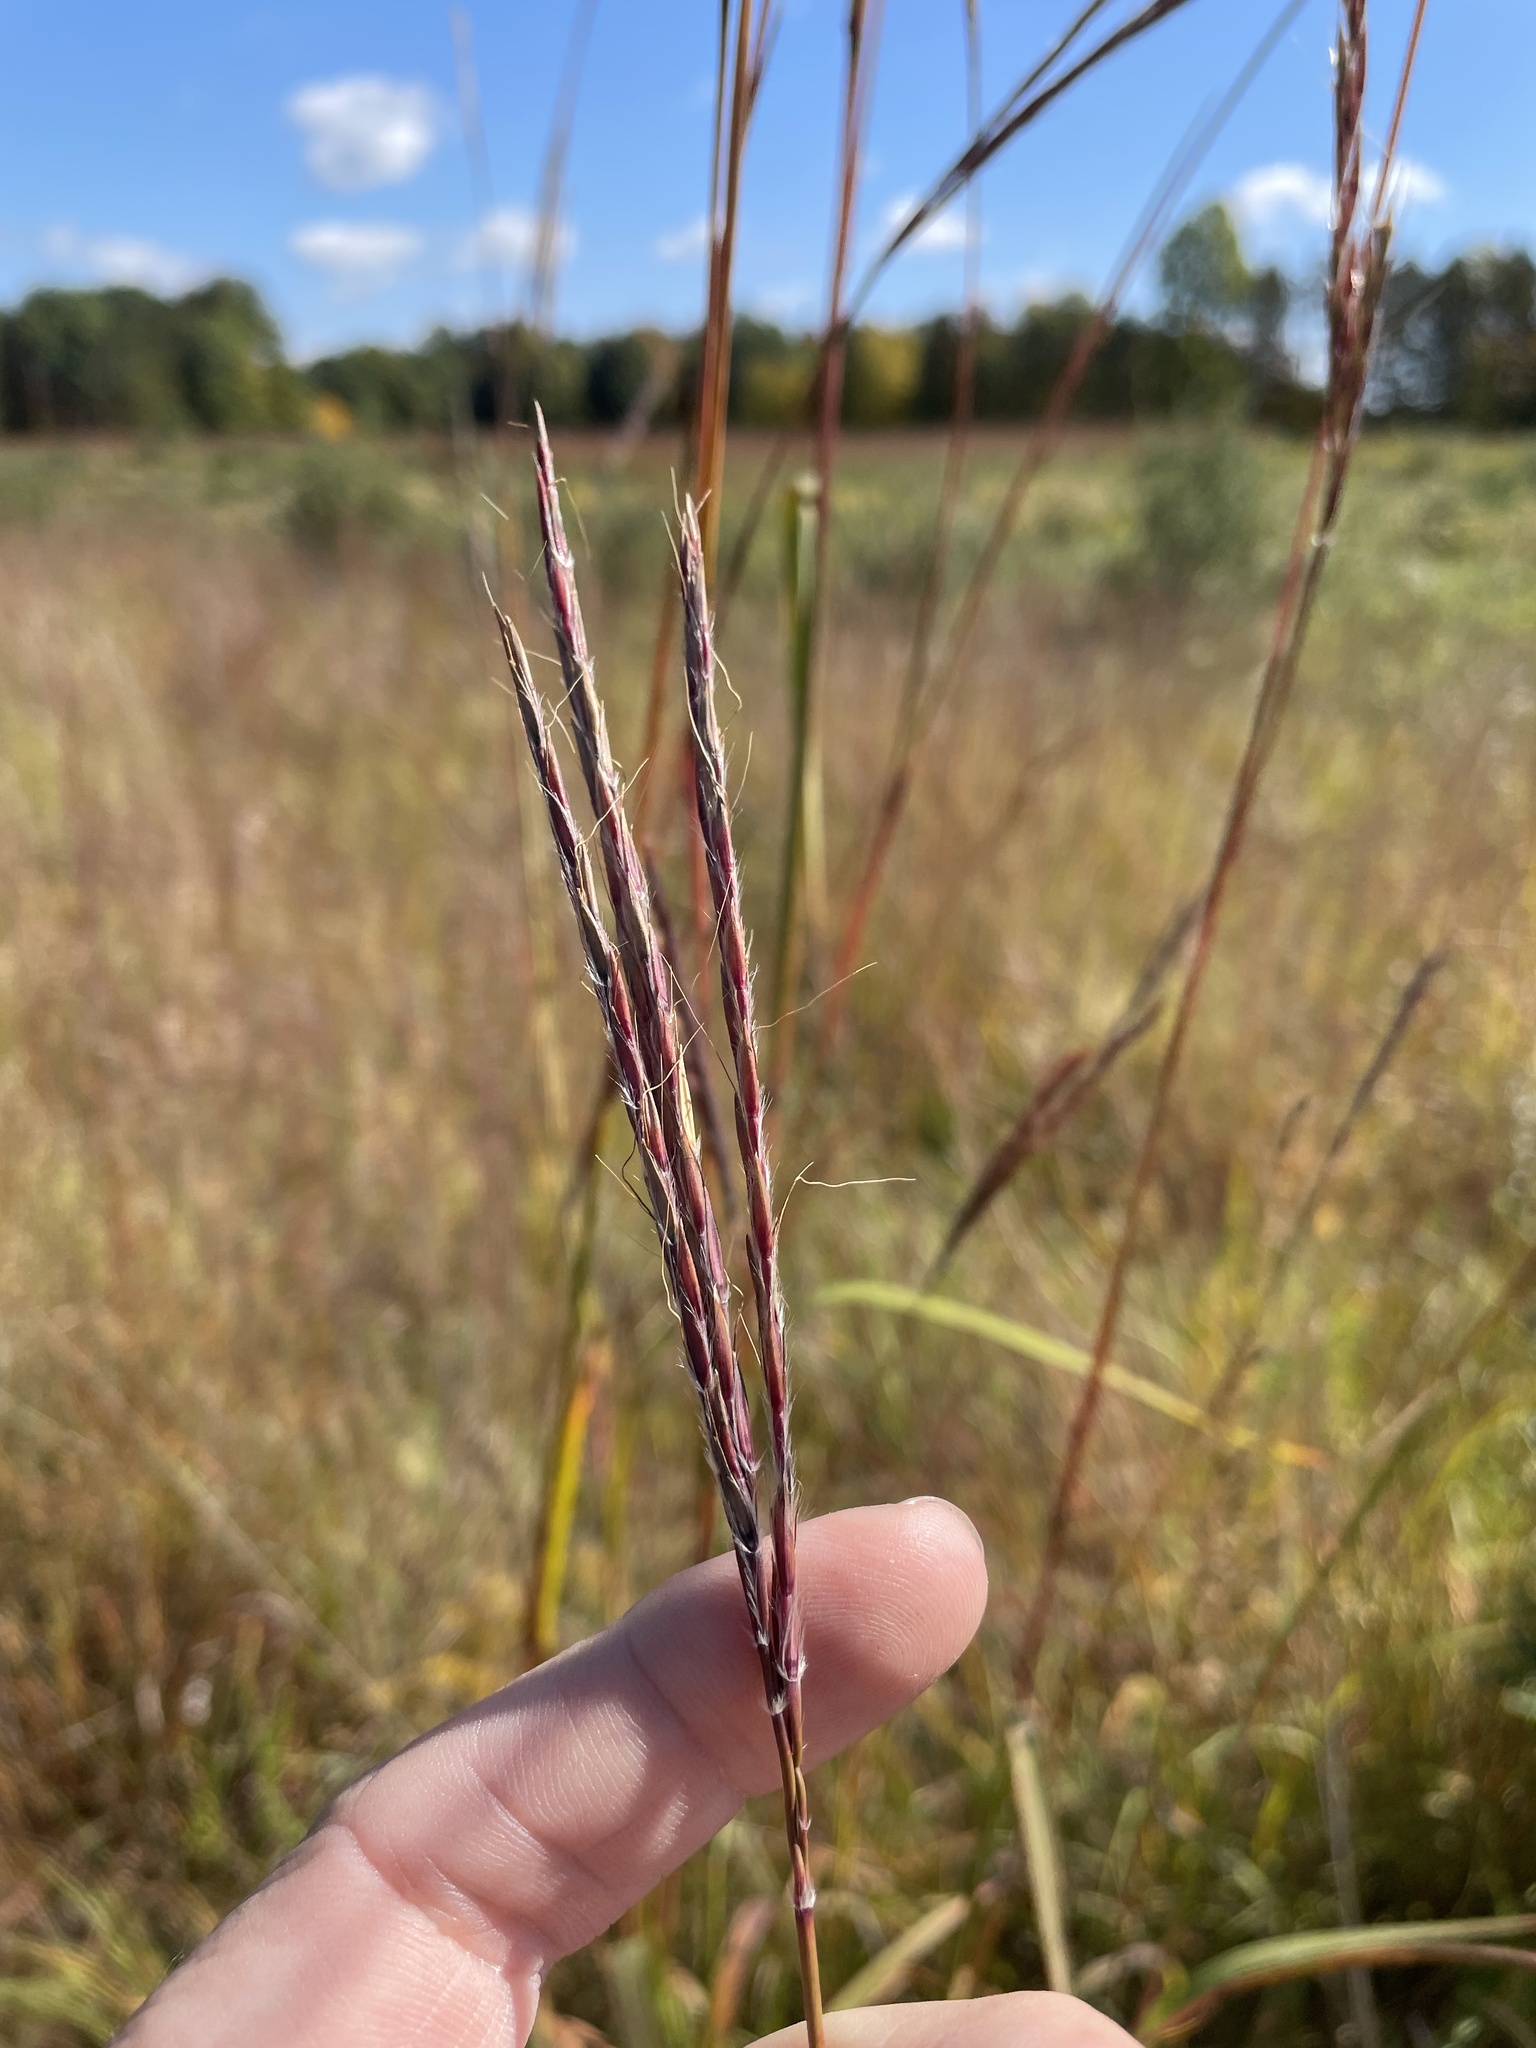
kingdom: Plantae
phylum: Tracheophyta
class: Liliopsida
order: Poales
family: Poaceae
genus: Andropogon
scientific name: Andropogon gerardi
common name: Big bluestem
